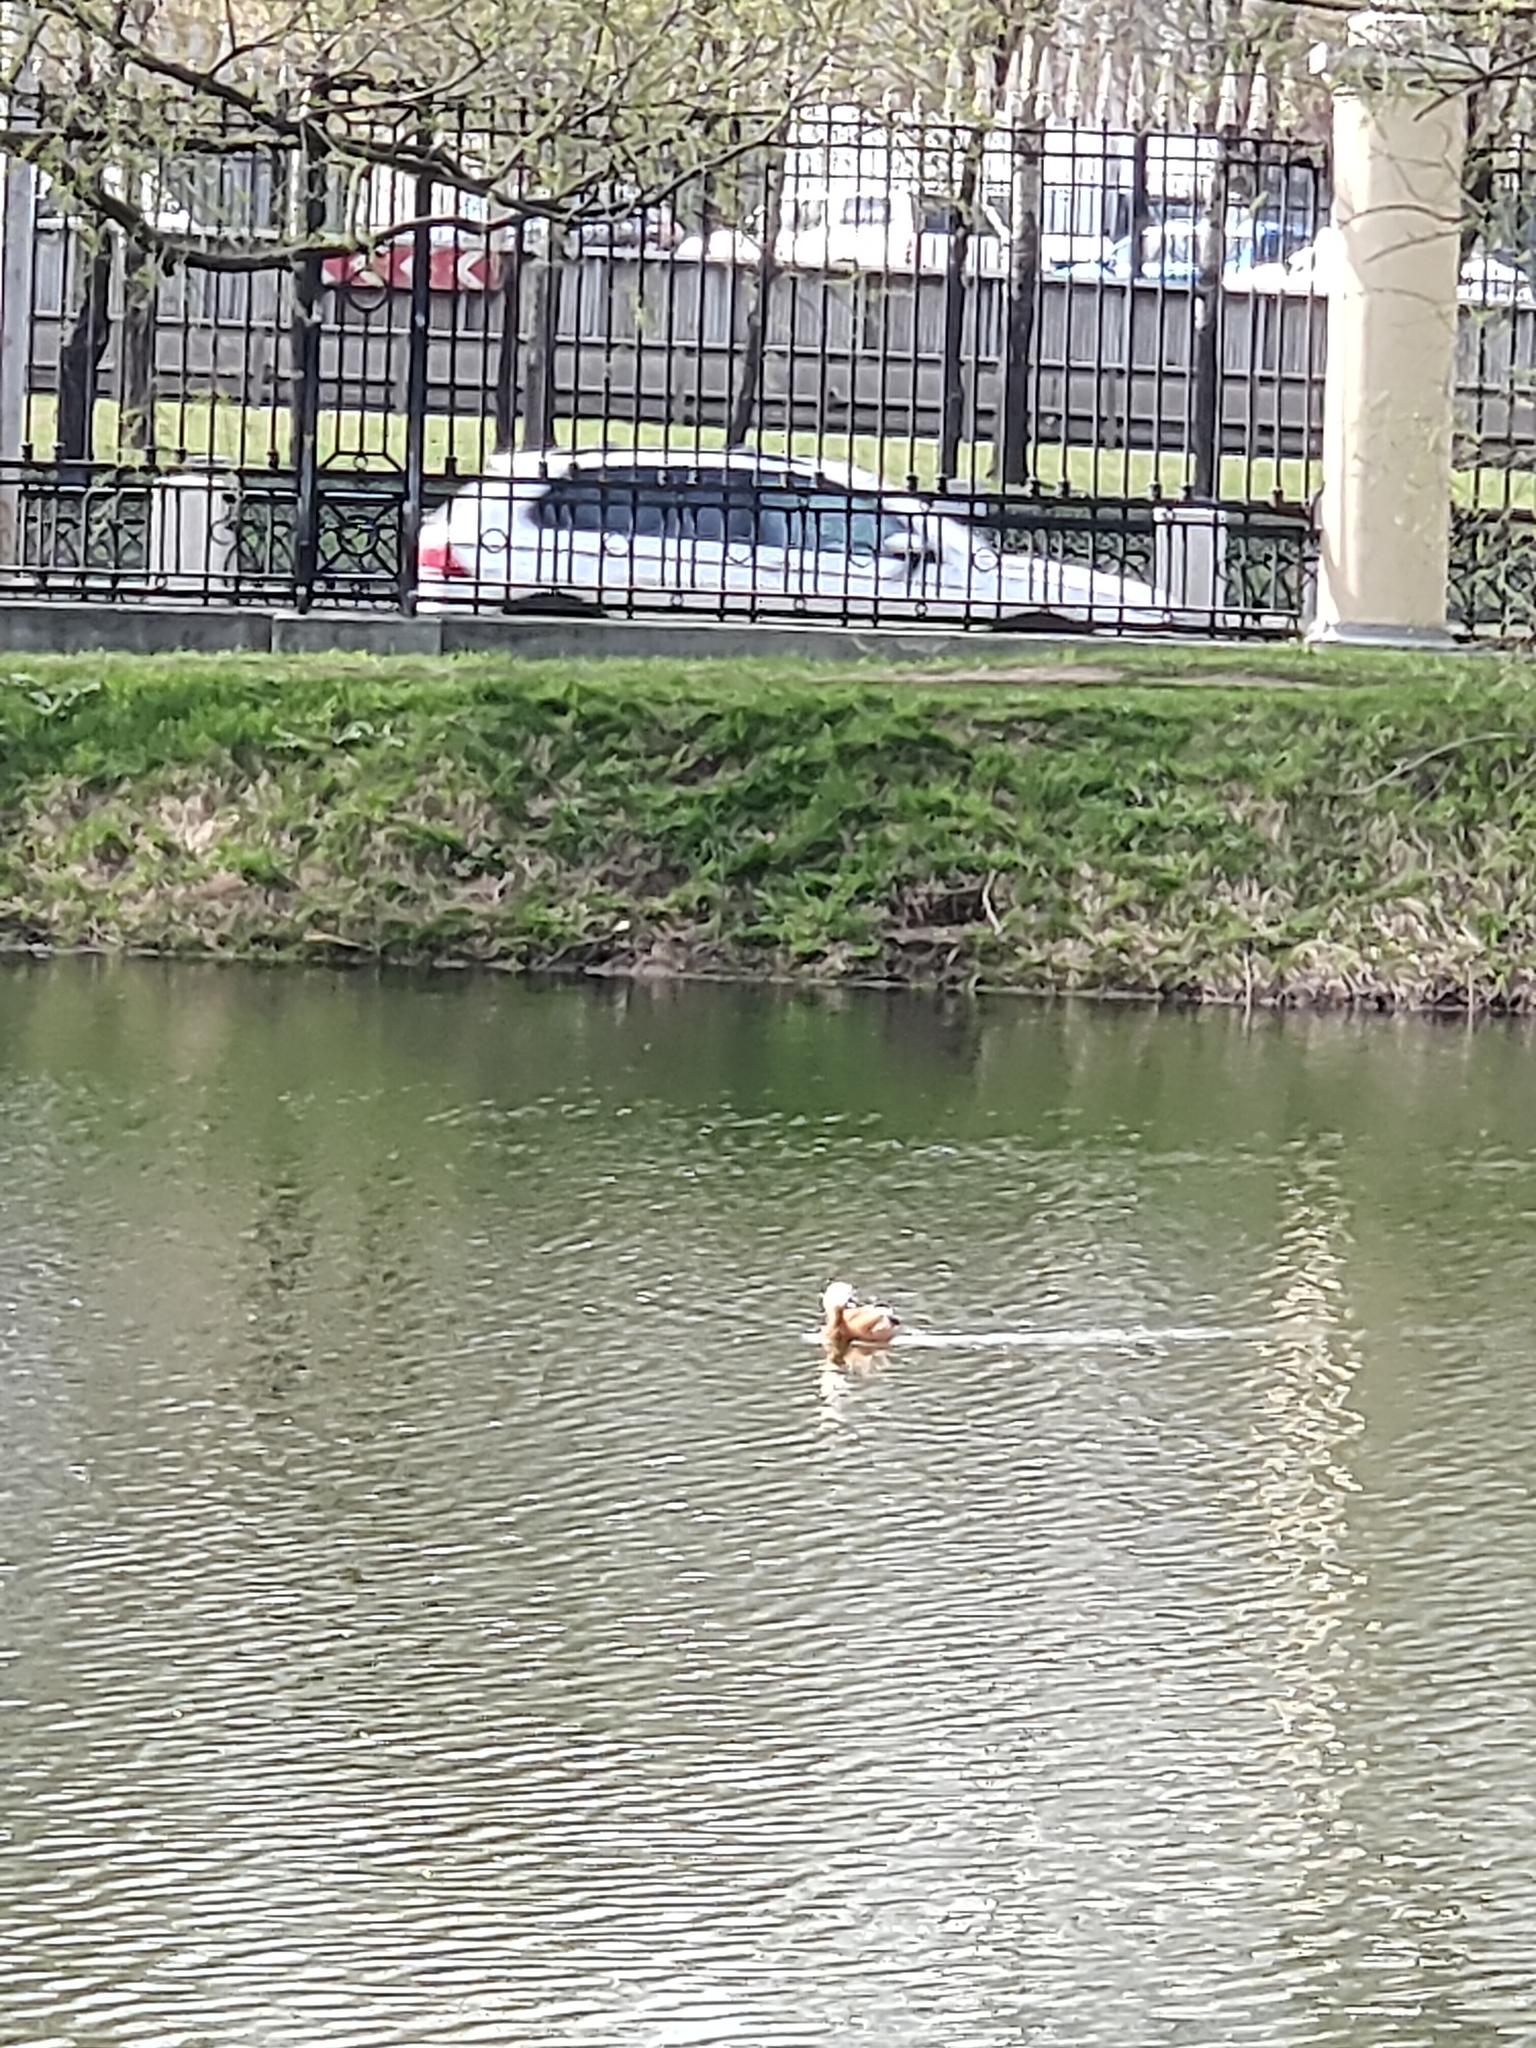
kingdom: Animalia
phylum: Chordata
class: Aves
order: Anseriformes
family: Anatidae
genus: Tadorna
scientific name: Tadorna ferruginea
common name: Ruddy shelduck
